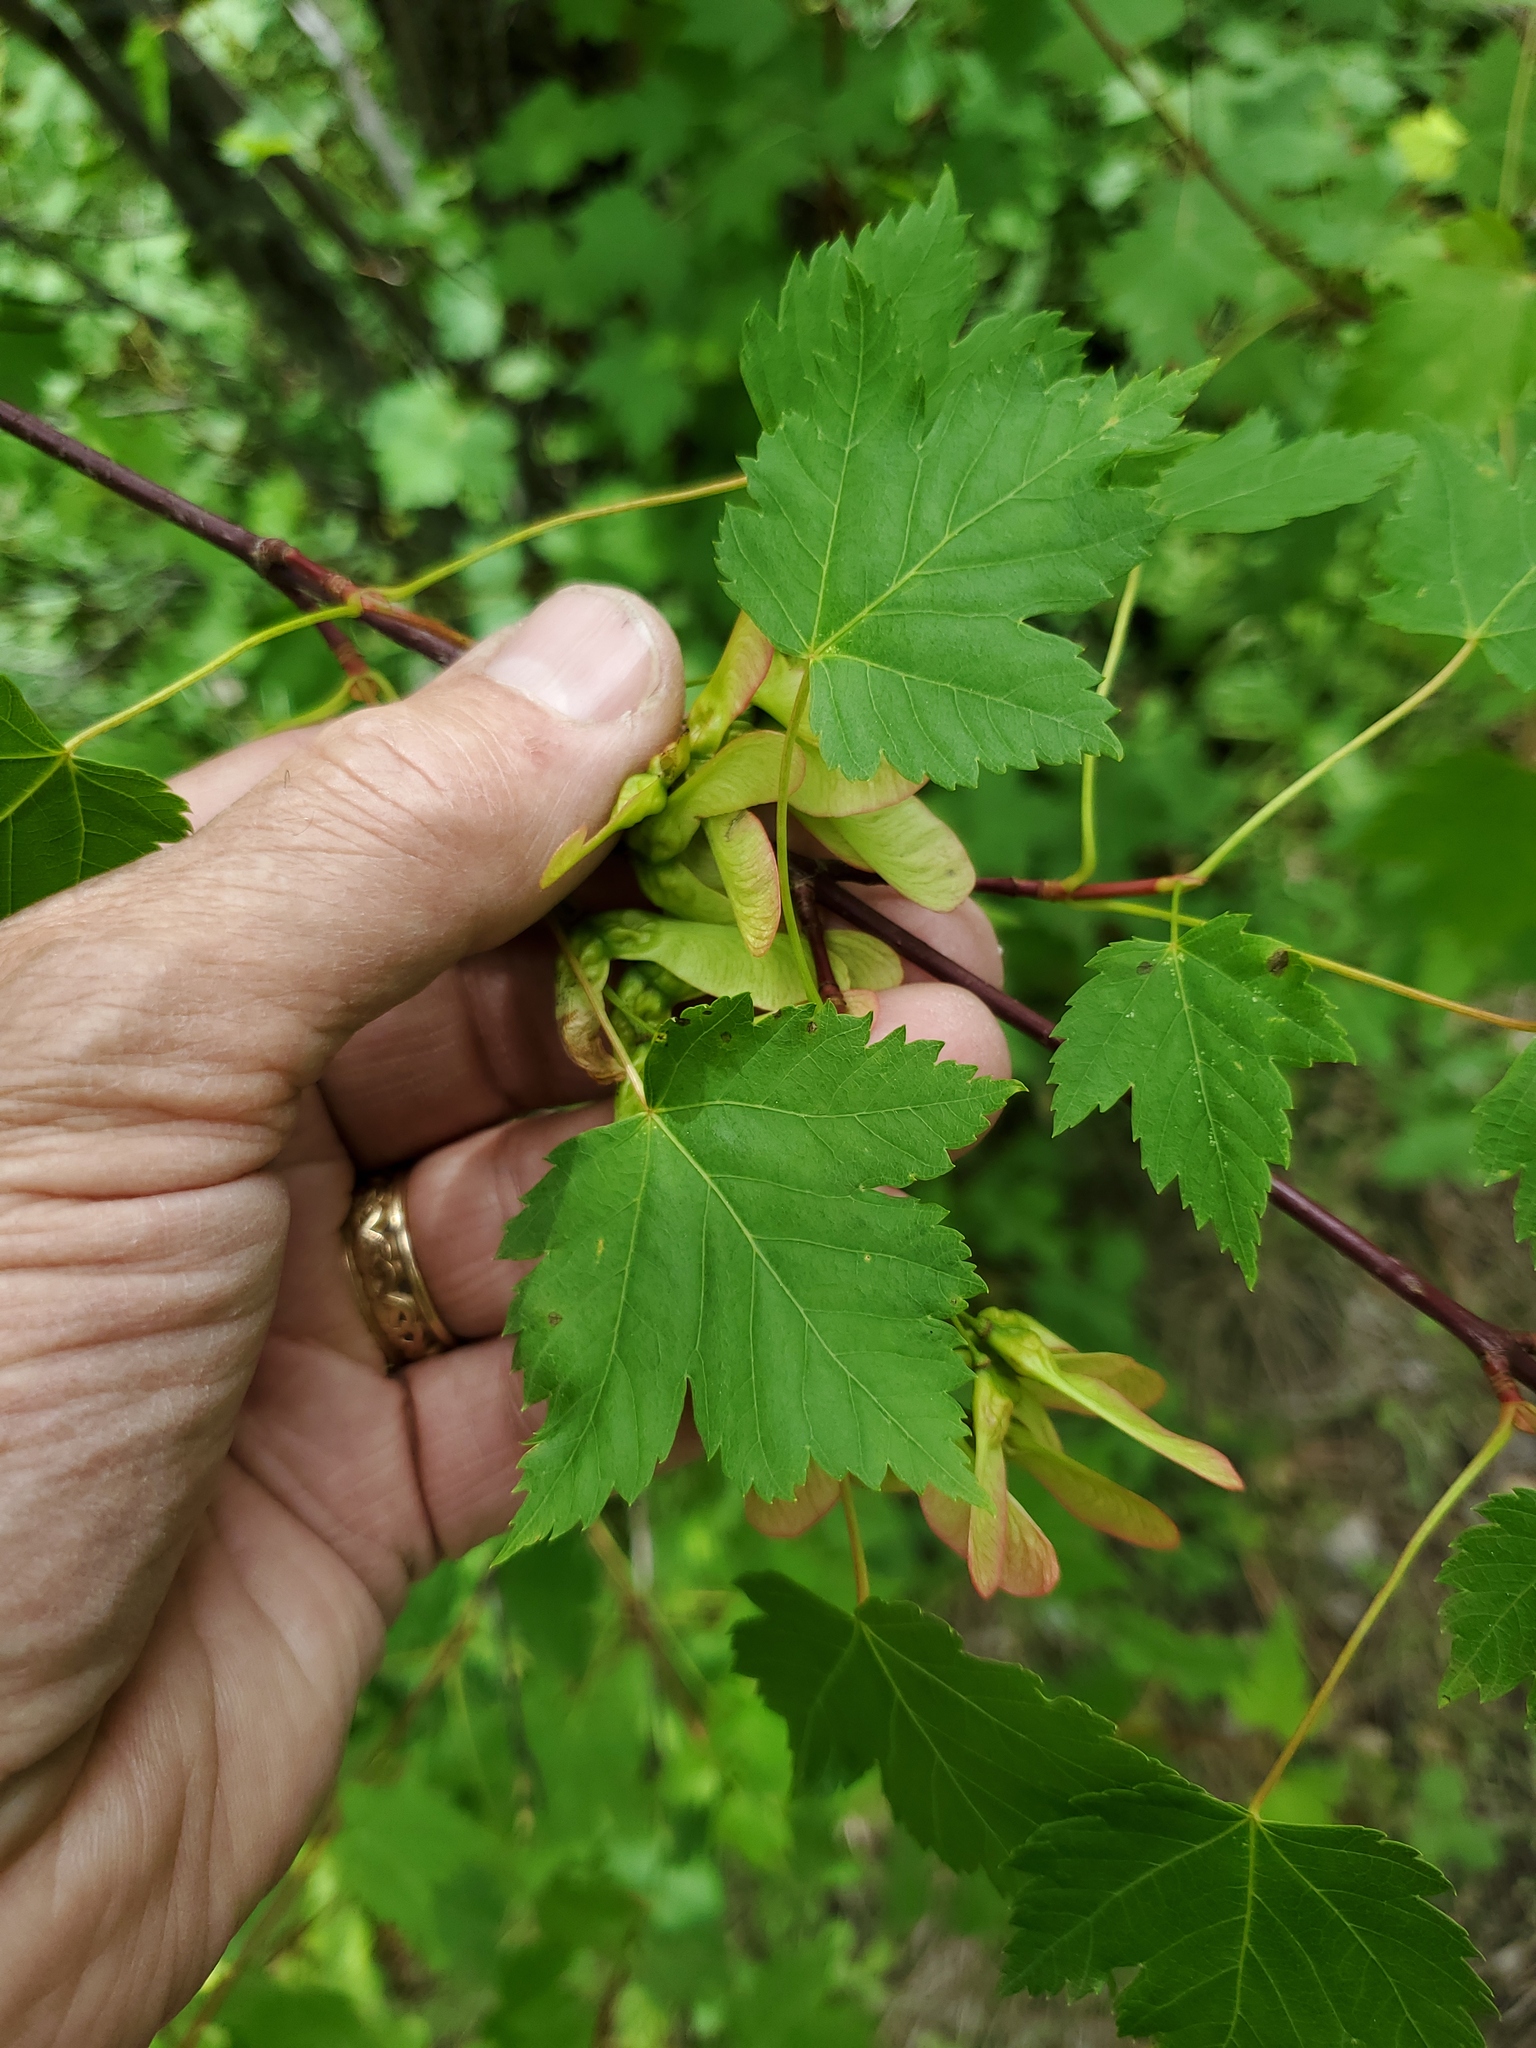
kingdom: Plantae
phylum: Tracheophyta
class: Magnoliopsida
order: Sapindales
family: Sapindaceae
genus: Acer
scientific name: Acer glabrum
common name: Rocky mountain maple
